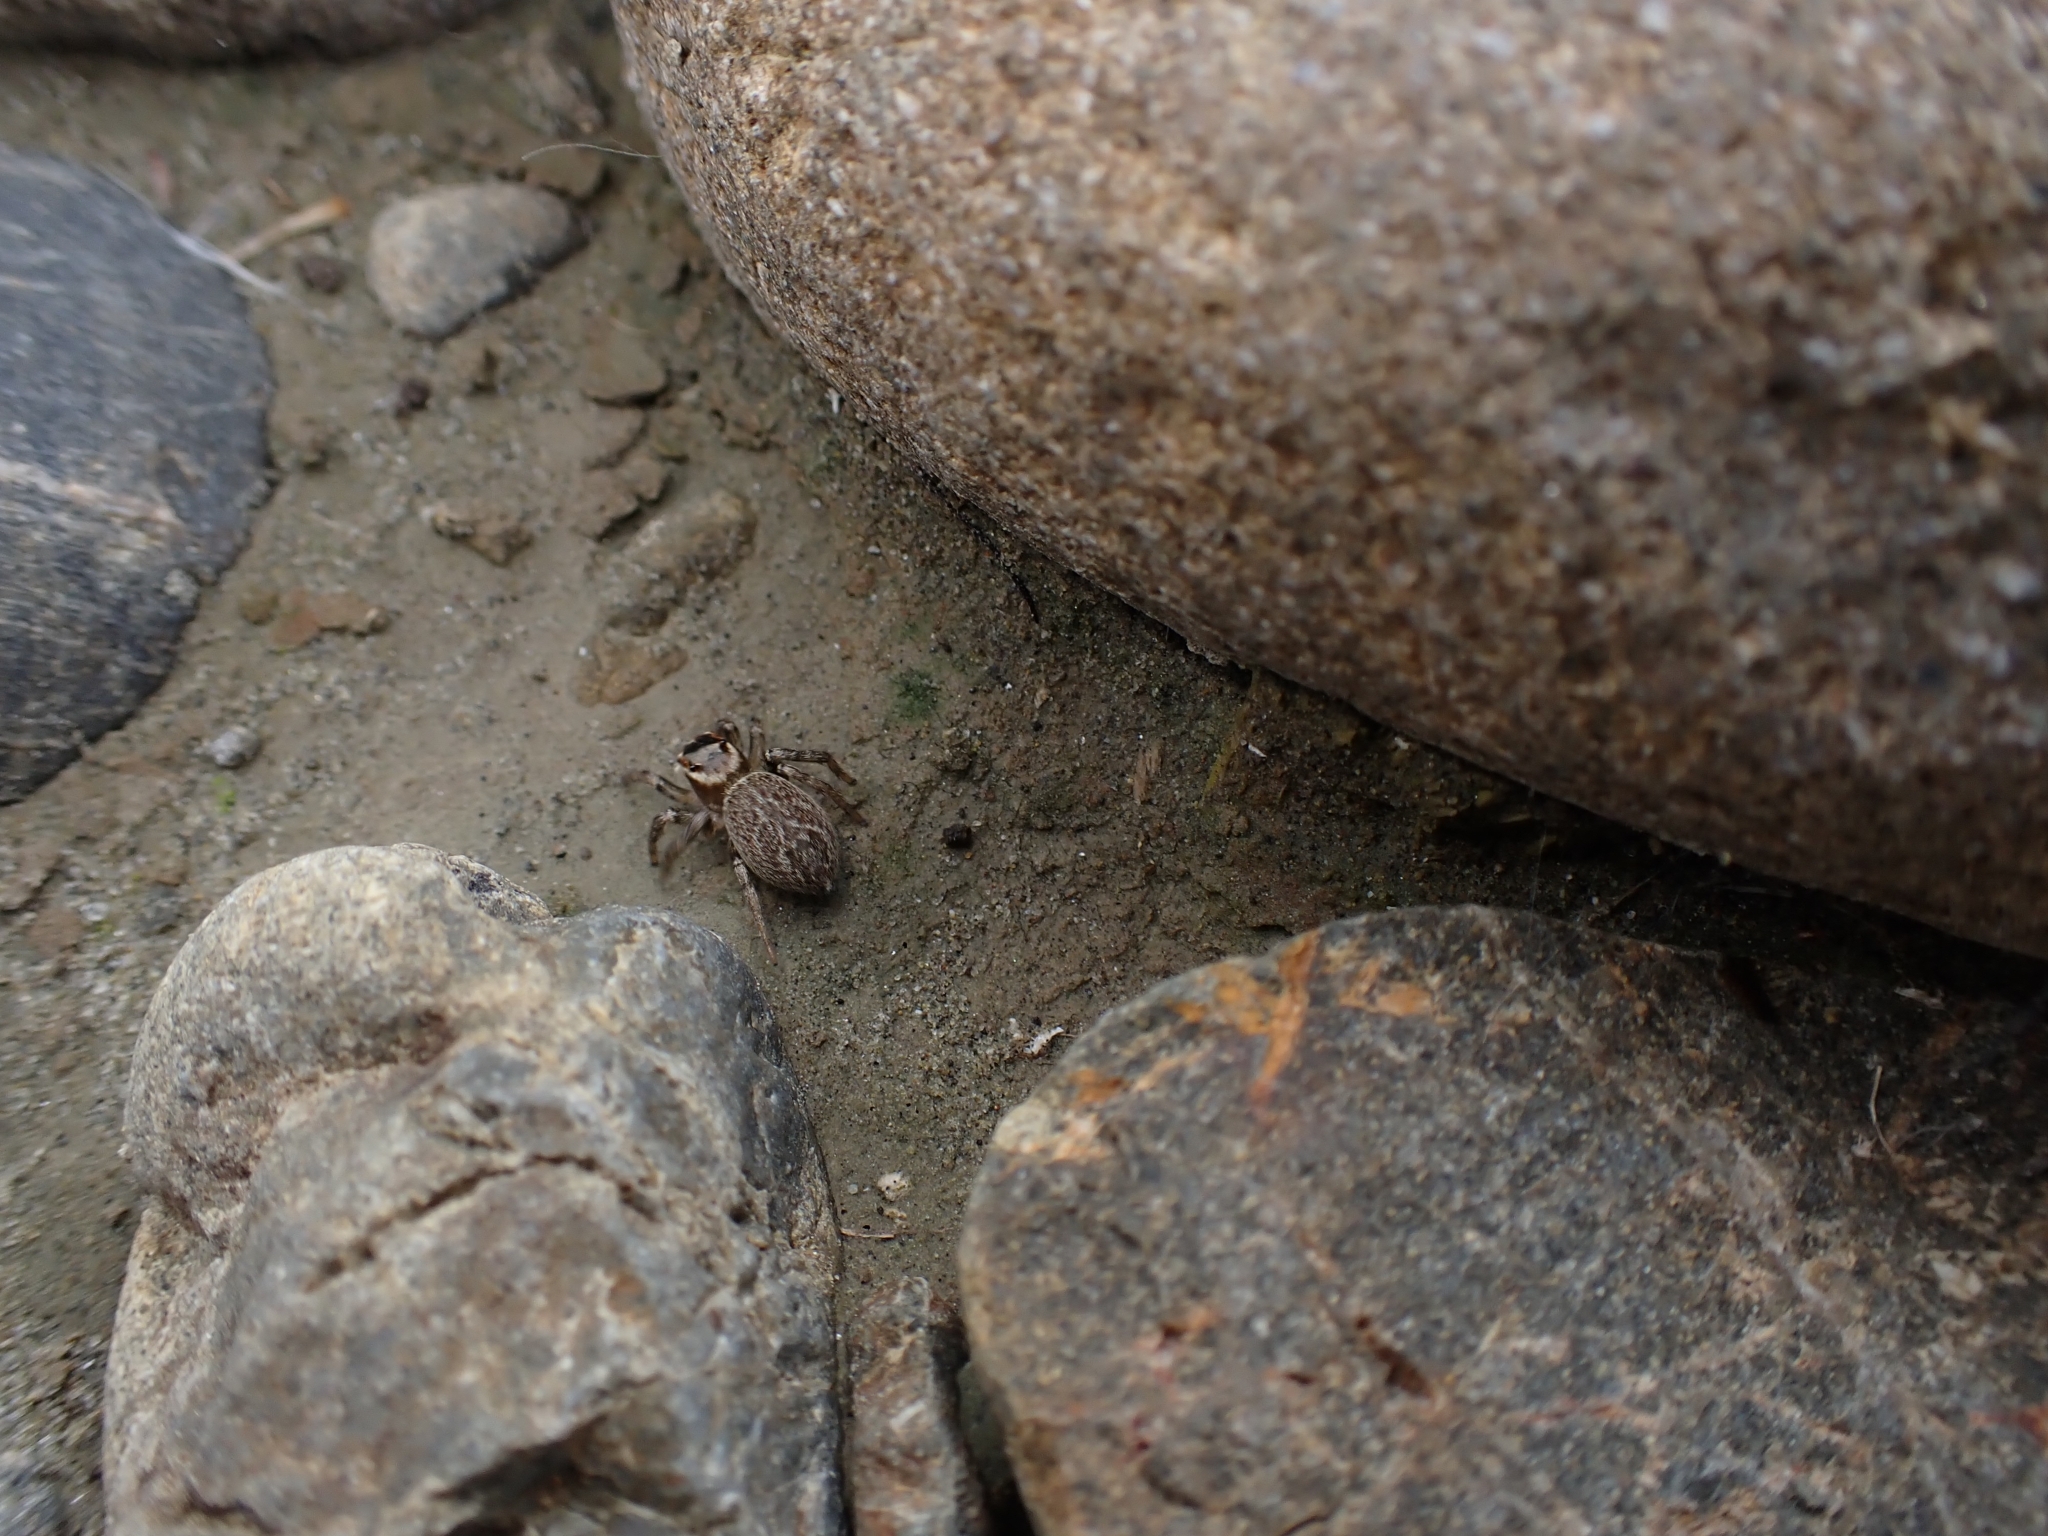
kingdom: Animalia
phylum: Arthropoda
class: Arachnida
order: Araneae
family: Salticidae
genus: Maratus
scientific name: Maratus griseus
